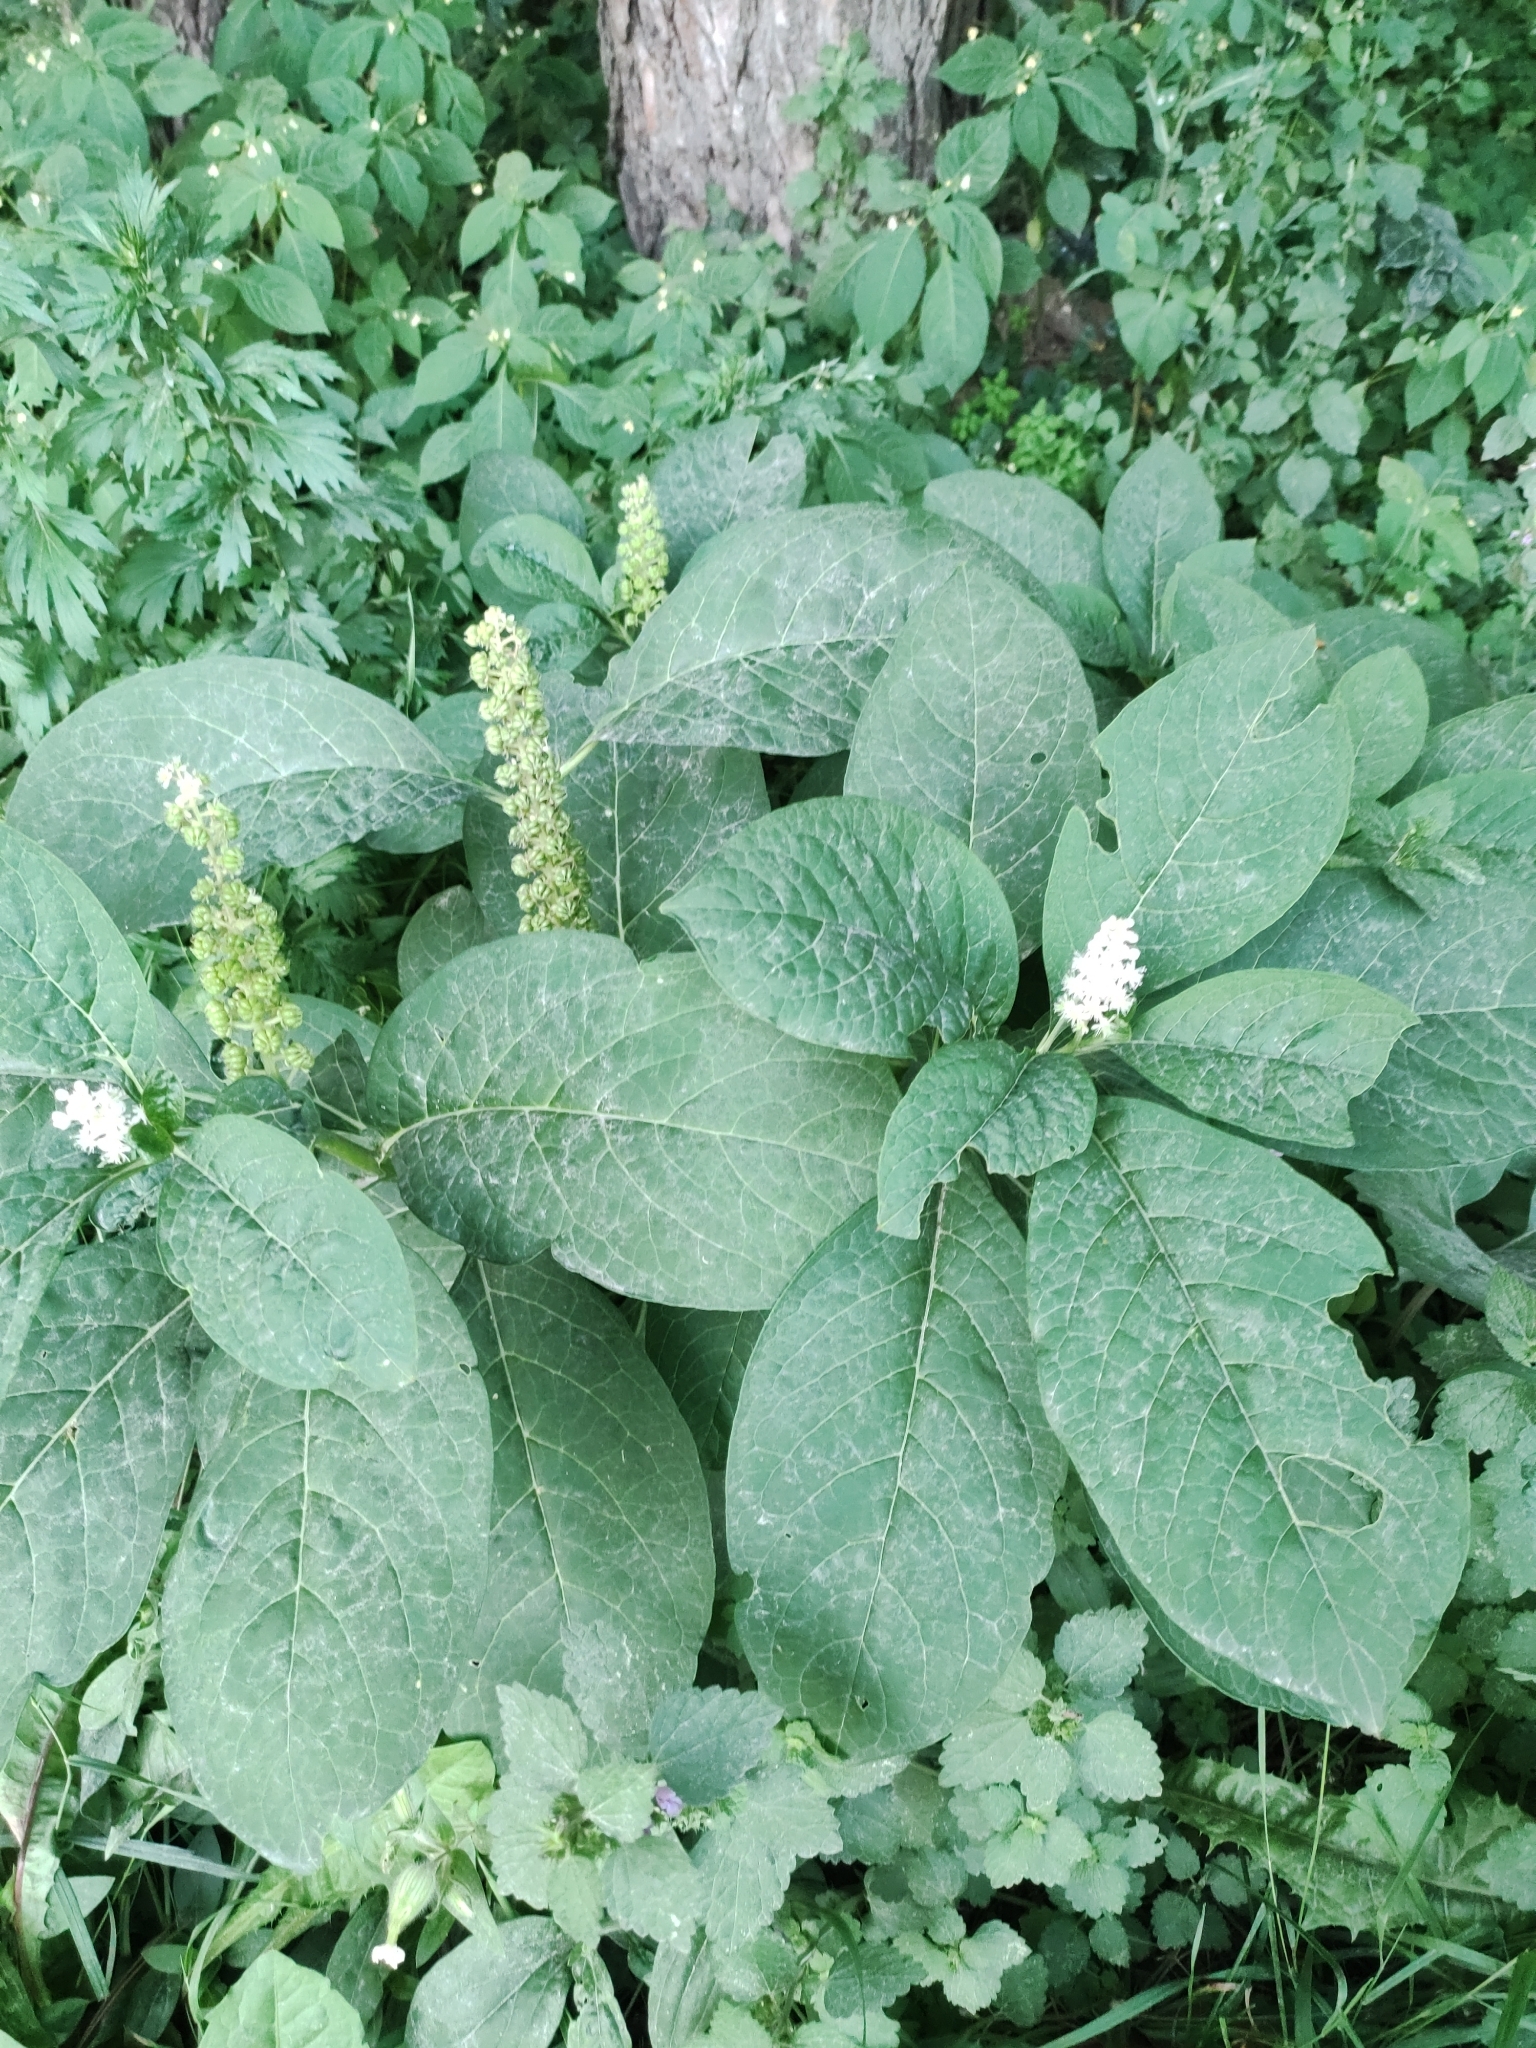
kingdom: Plantae
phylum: Tracheophyta
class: Magnoliopsida
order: Caryophyllales
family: Phytolaccaceae
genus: Phytolacca
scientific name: Phytolacca acinosa
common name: Indian pokeweed
